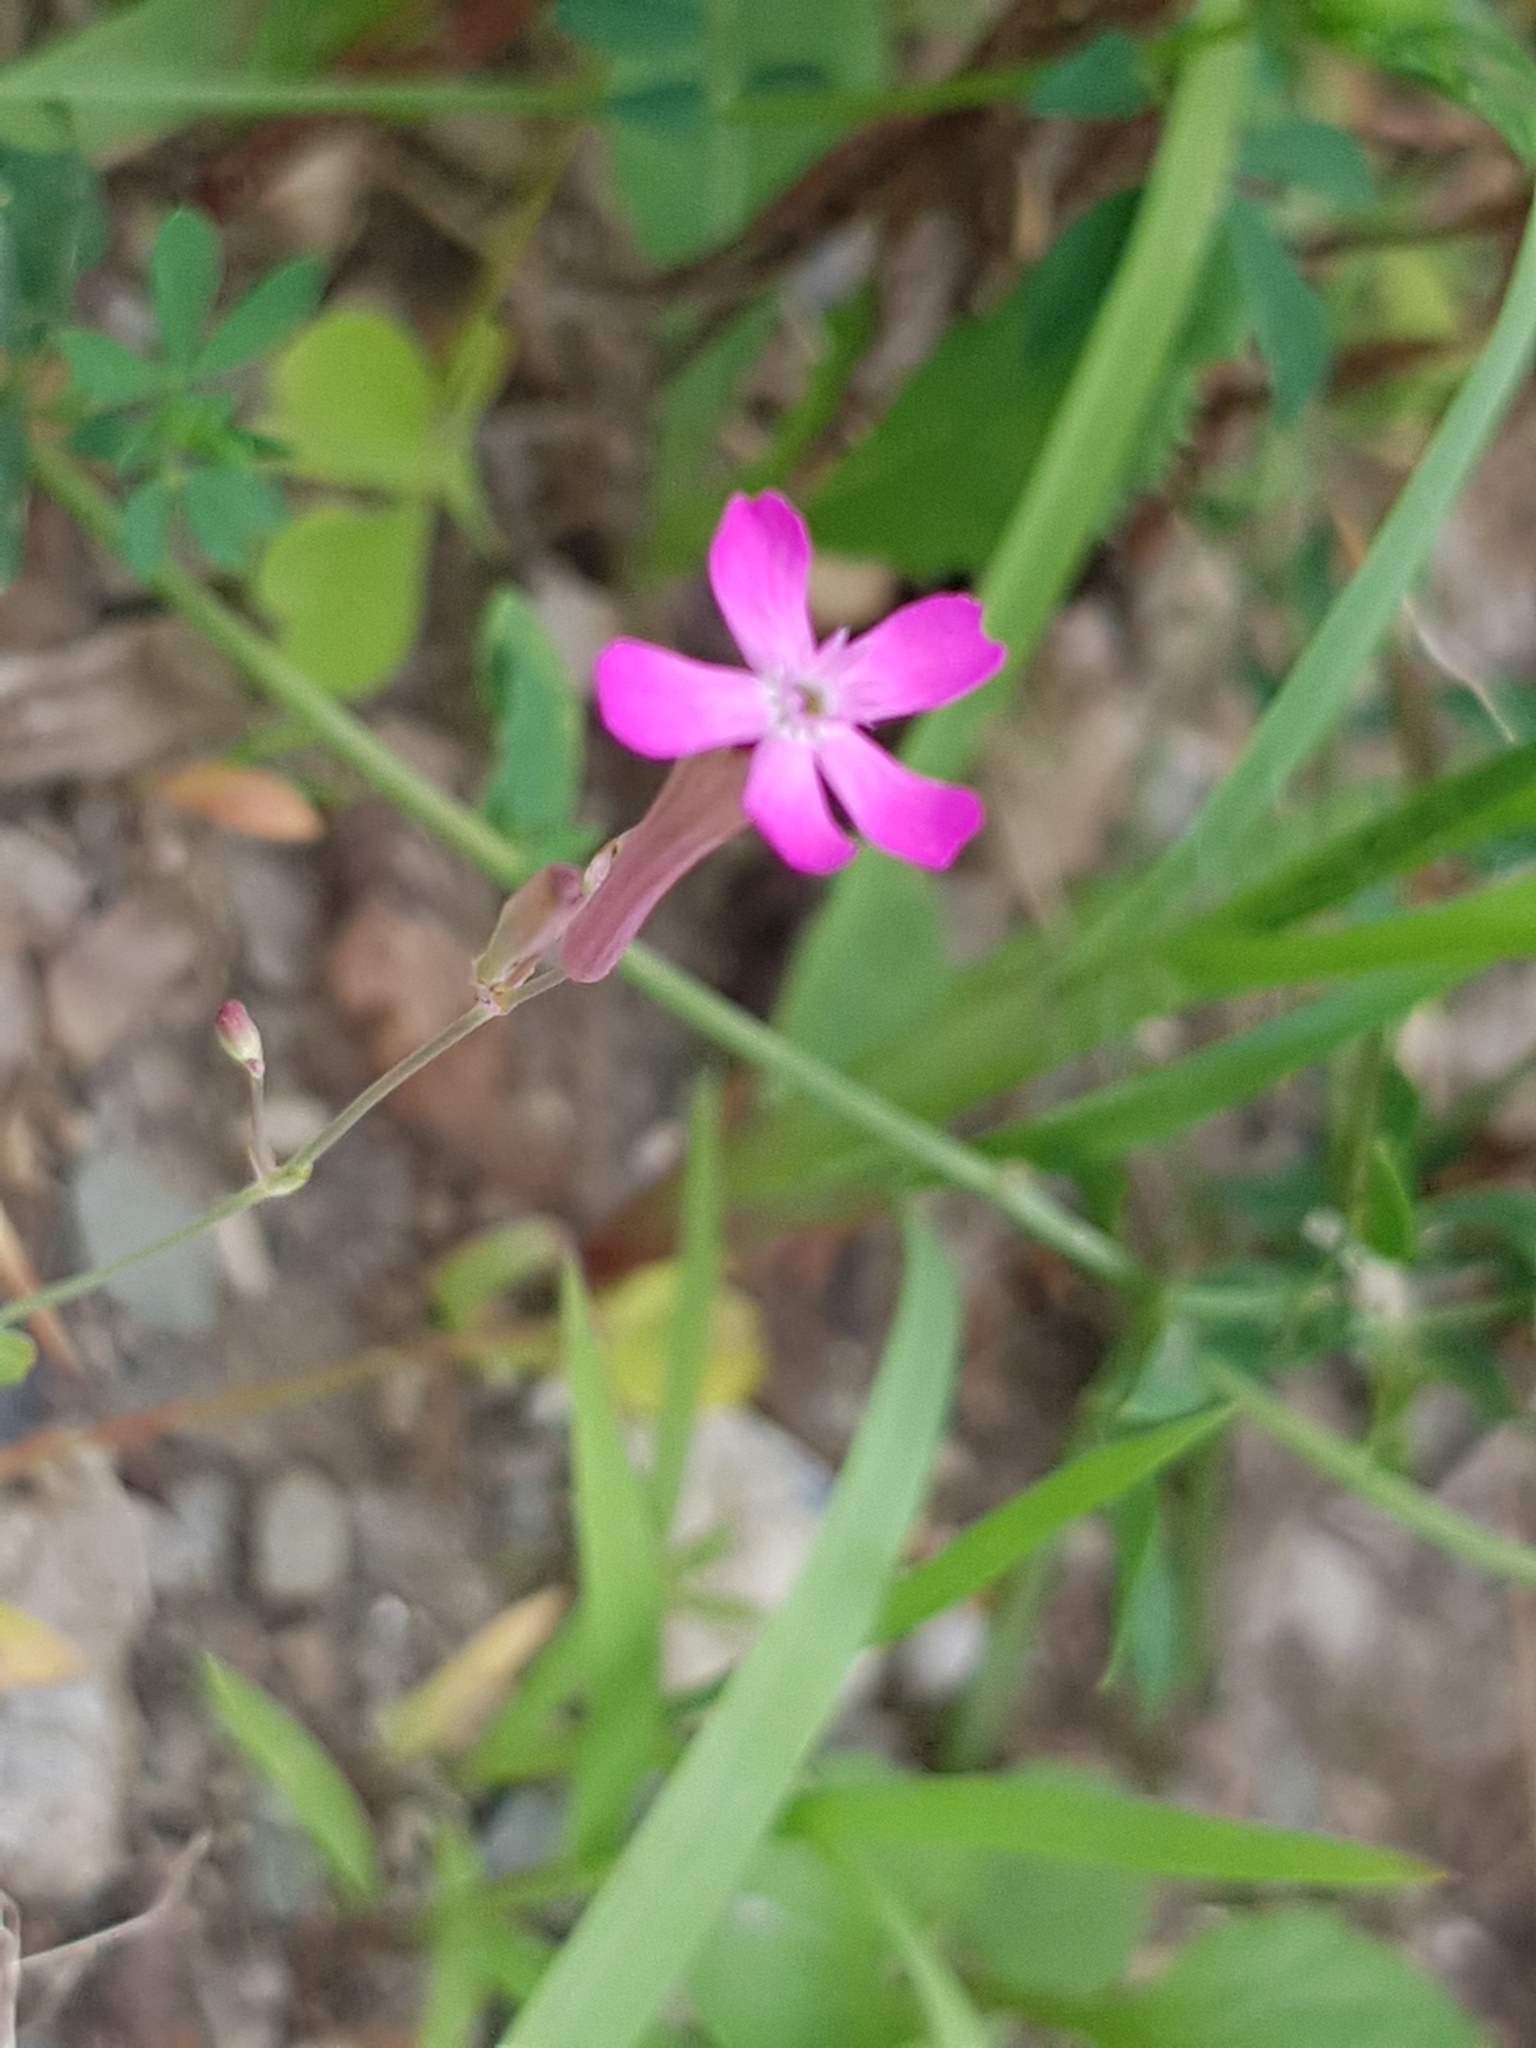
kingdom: Plantae
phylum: Tracheophyta
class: Magnoliopsida
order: Caryophyllales
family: Caryophyllaceae
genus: Atocion
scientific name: Atocion armeria
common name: Sweet william catchfly
